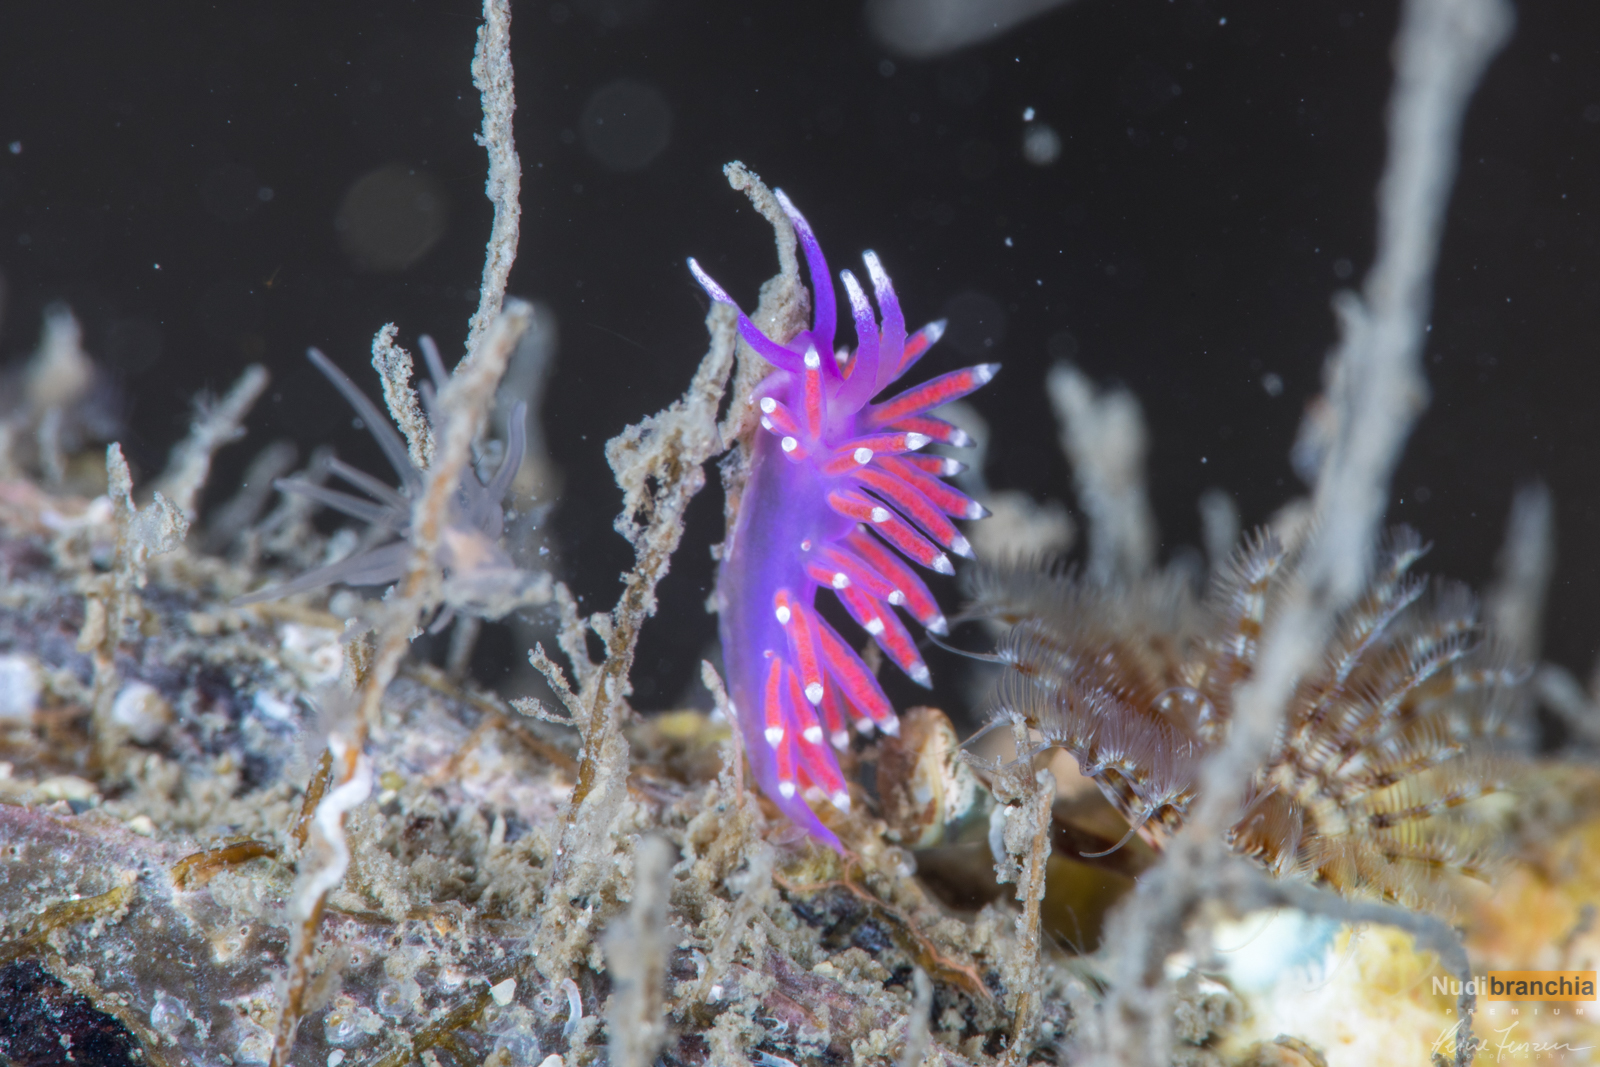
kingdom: Animalia
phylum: Mollusca
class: Gastropoda
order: Nudibranchia
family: Flabellinidae
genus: Edmundsella
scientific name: Edmundsella pedata
